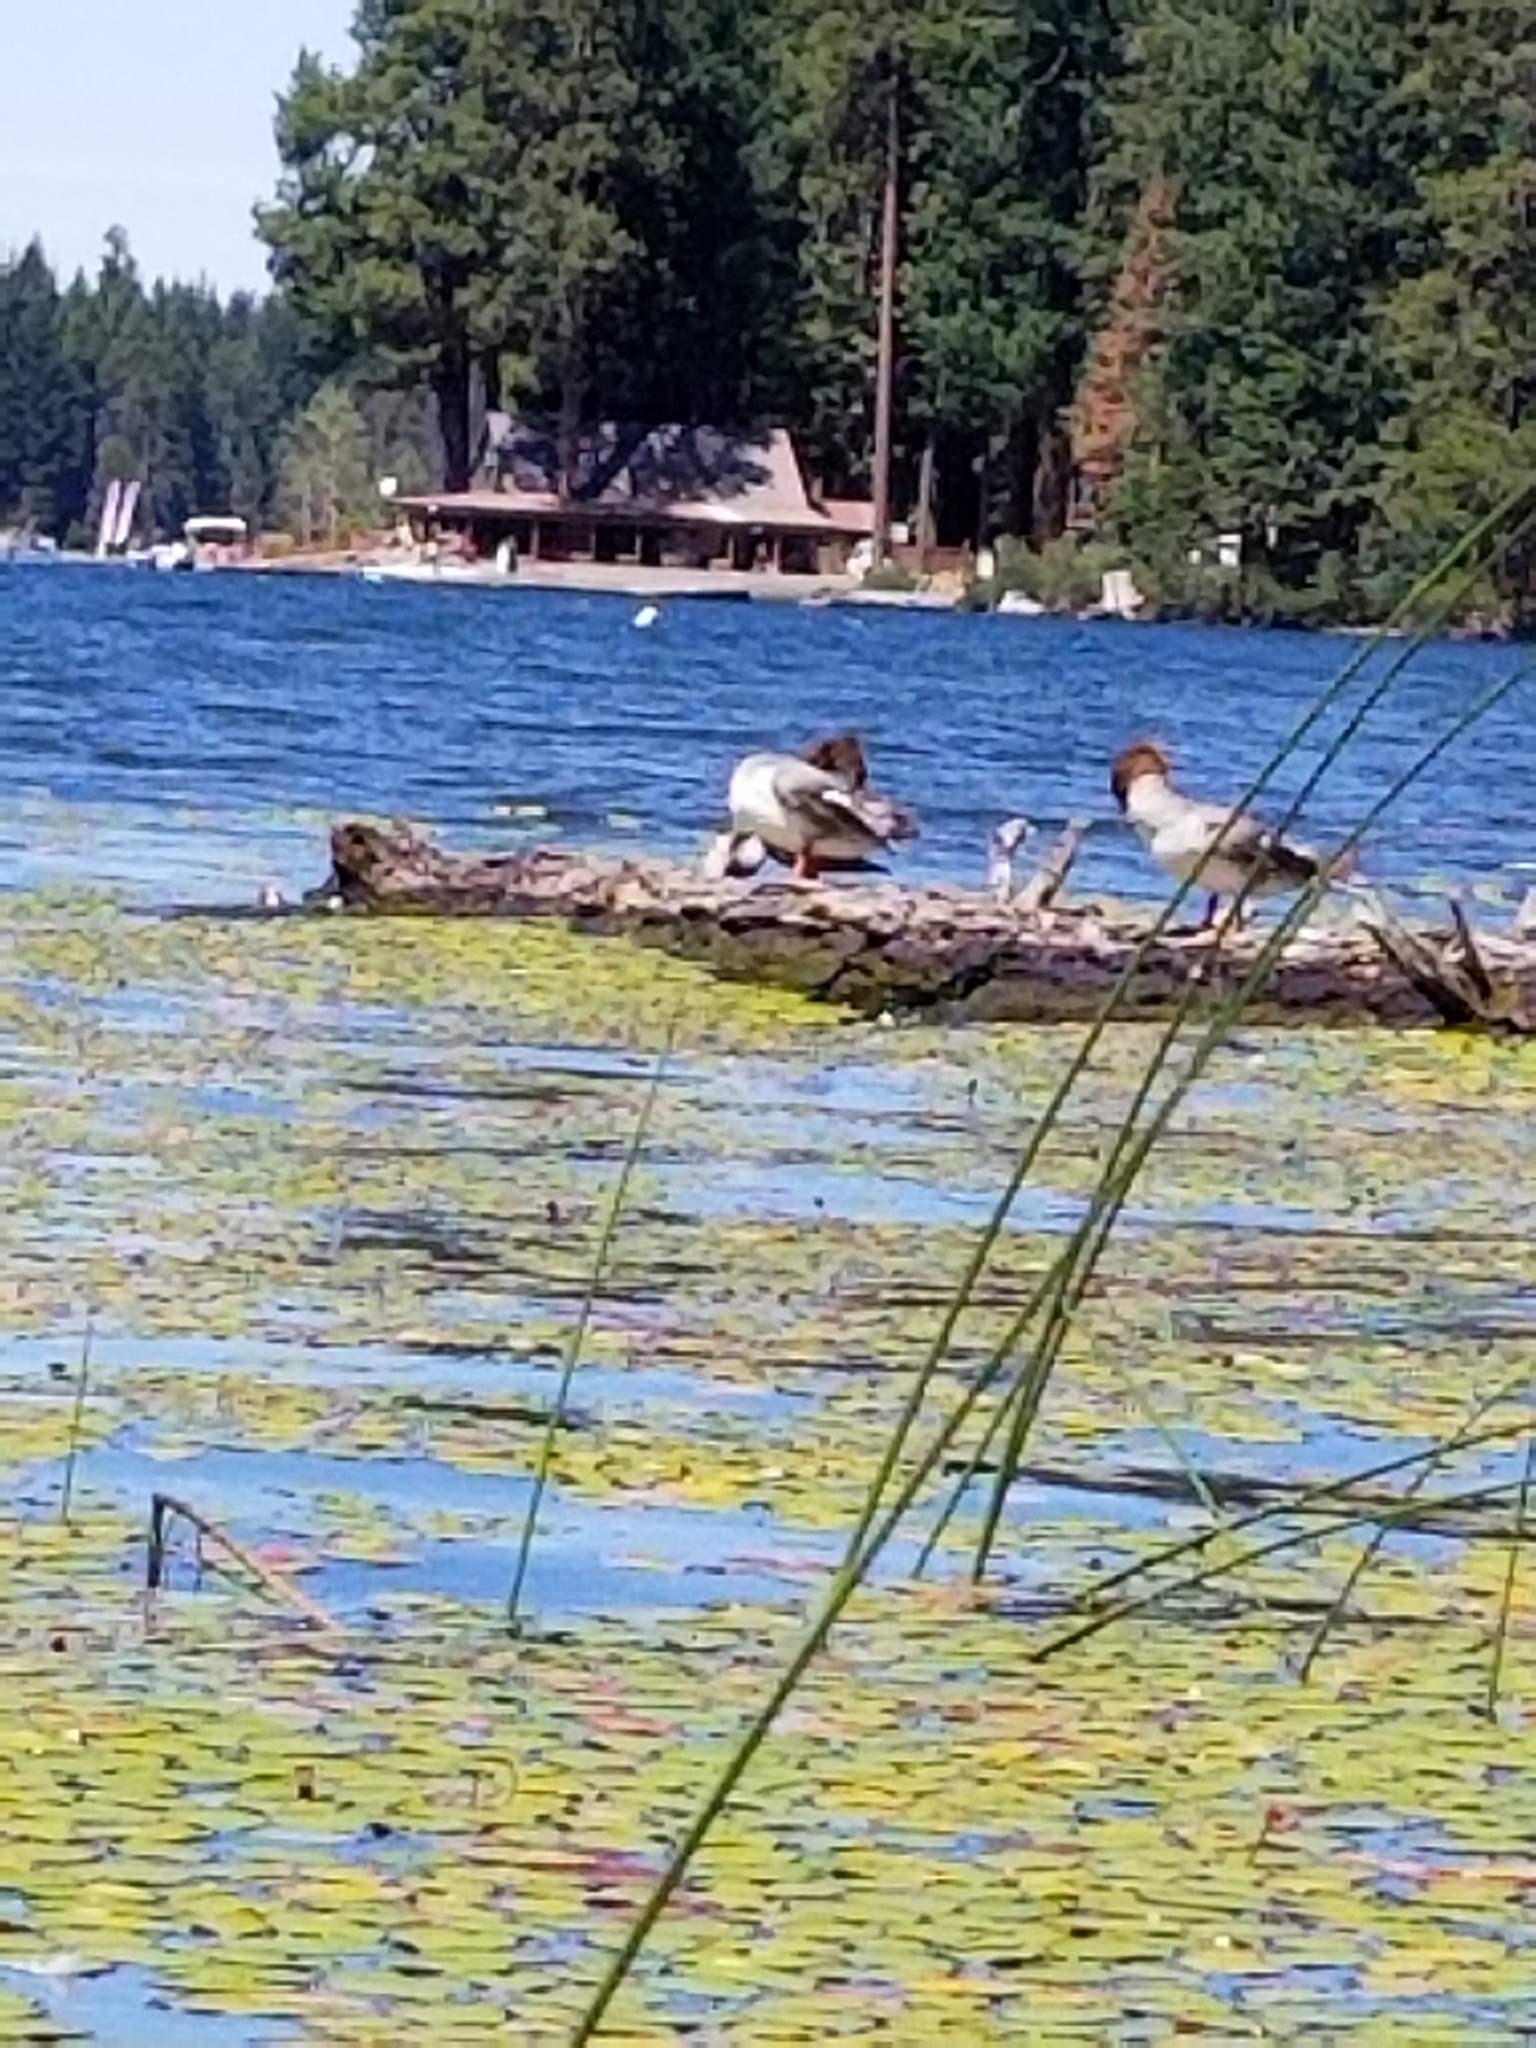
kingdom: Animalia
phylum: Chordata
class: Aves
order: Anseriformes
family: Anatidae
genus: Mergus
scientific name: Mergus merganser
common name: Common merganser
